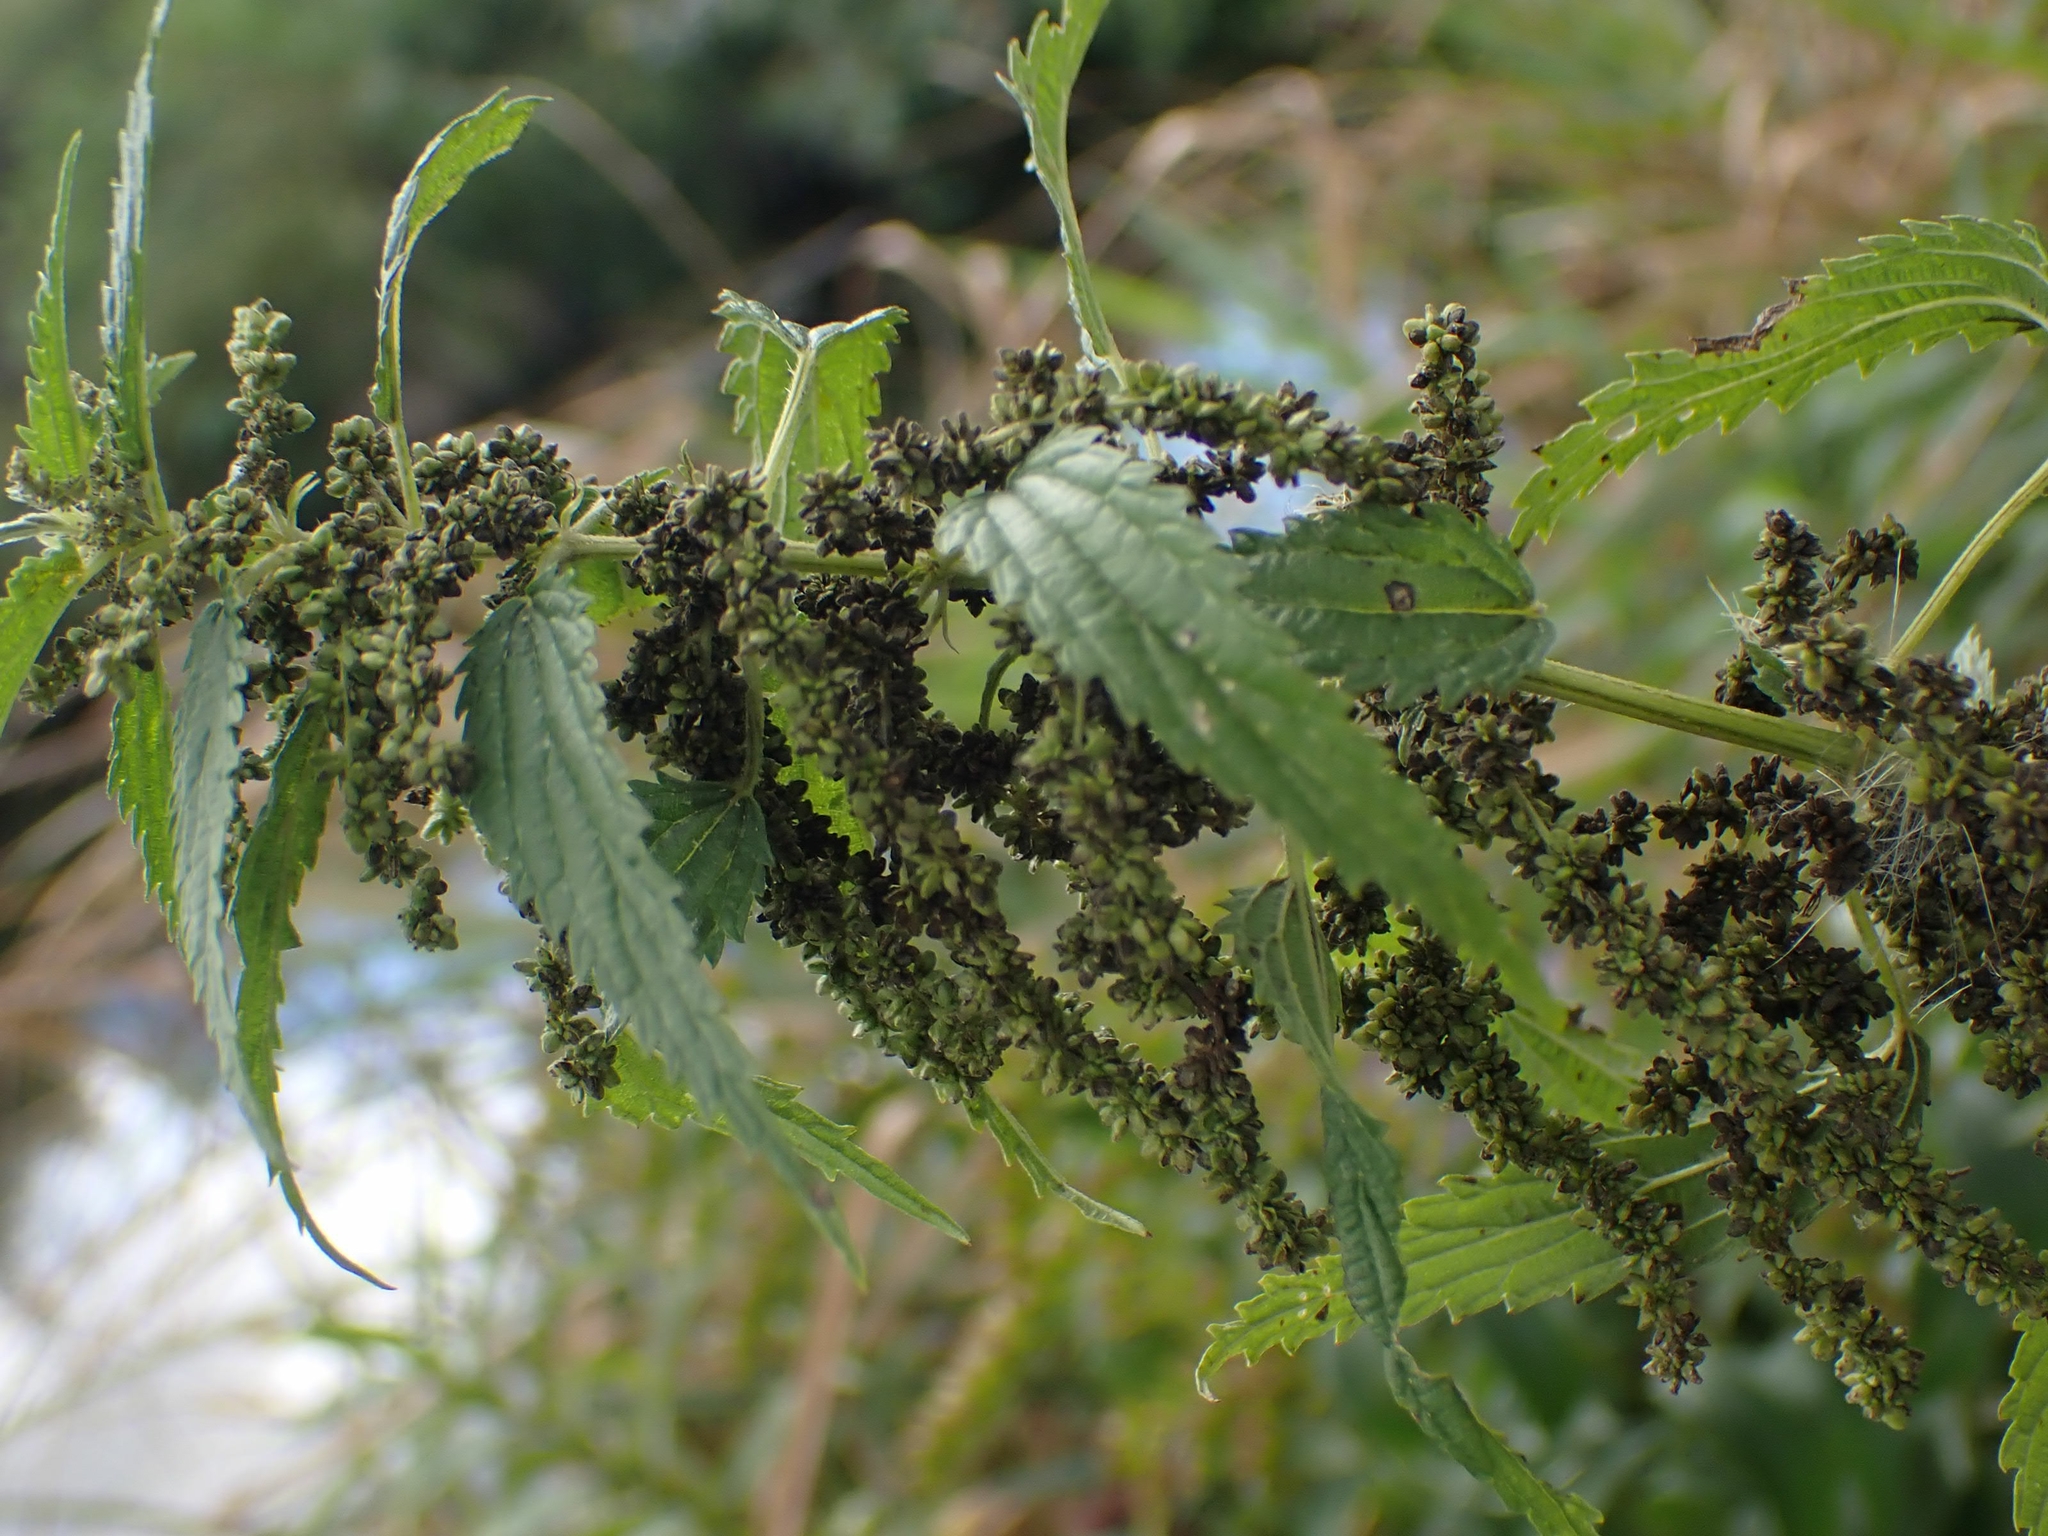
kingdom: Plantae
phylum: Tracheophyta
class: Magnoliopsida
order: Rosales
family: Urticaceae
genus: Urtica
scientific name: Urtica gracilis
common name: Slender stinging nettle
